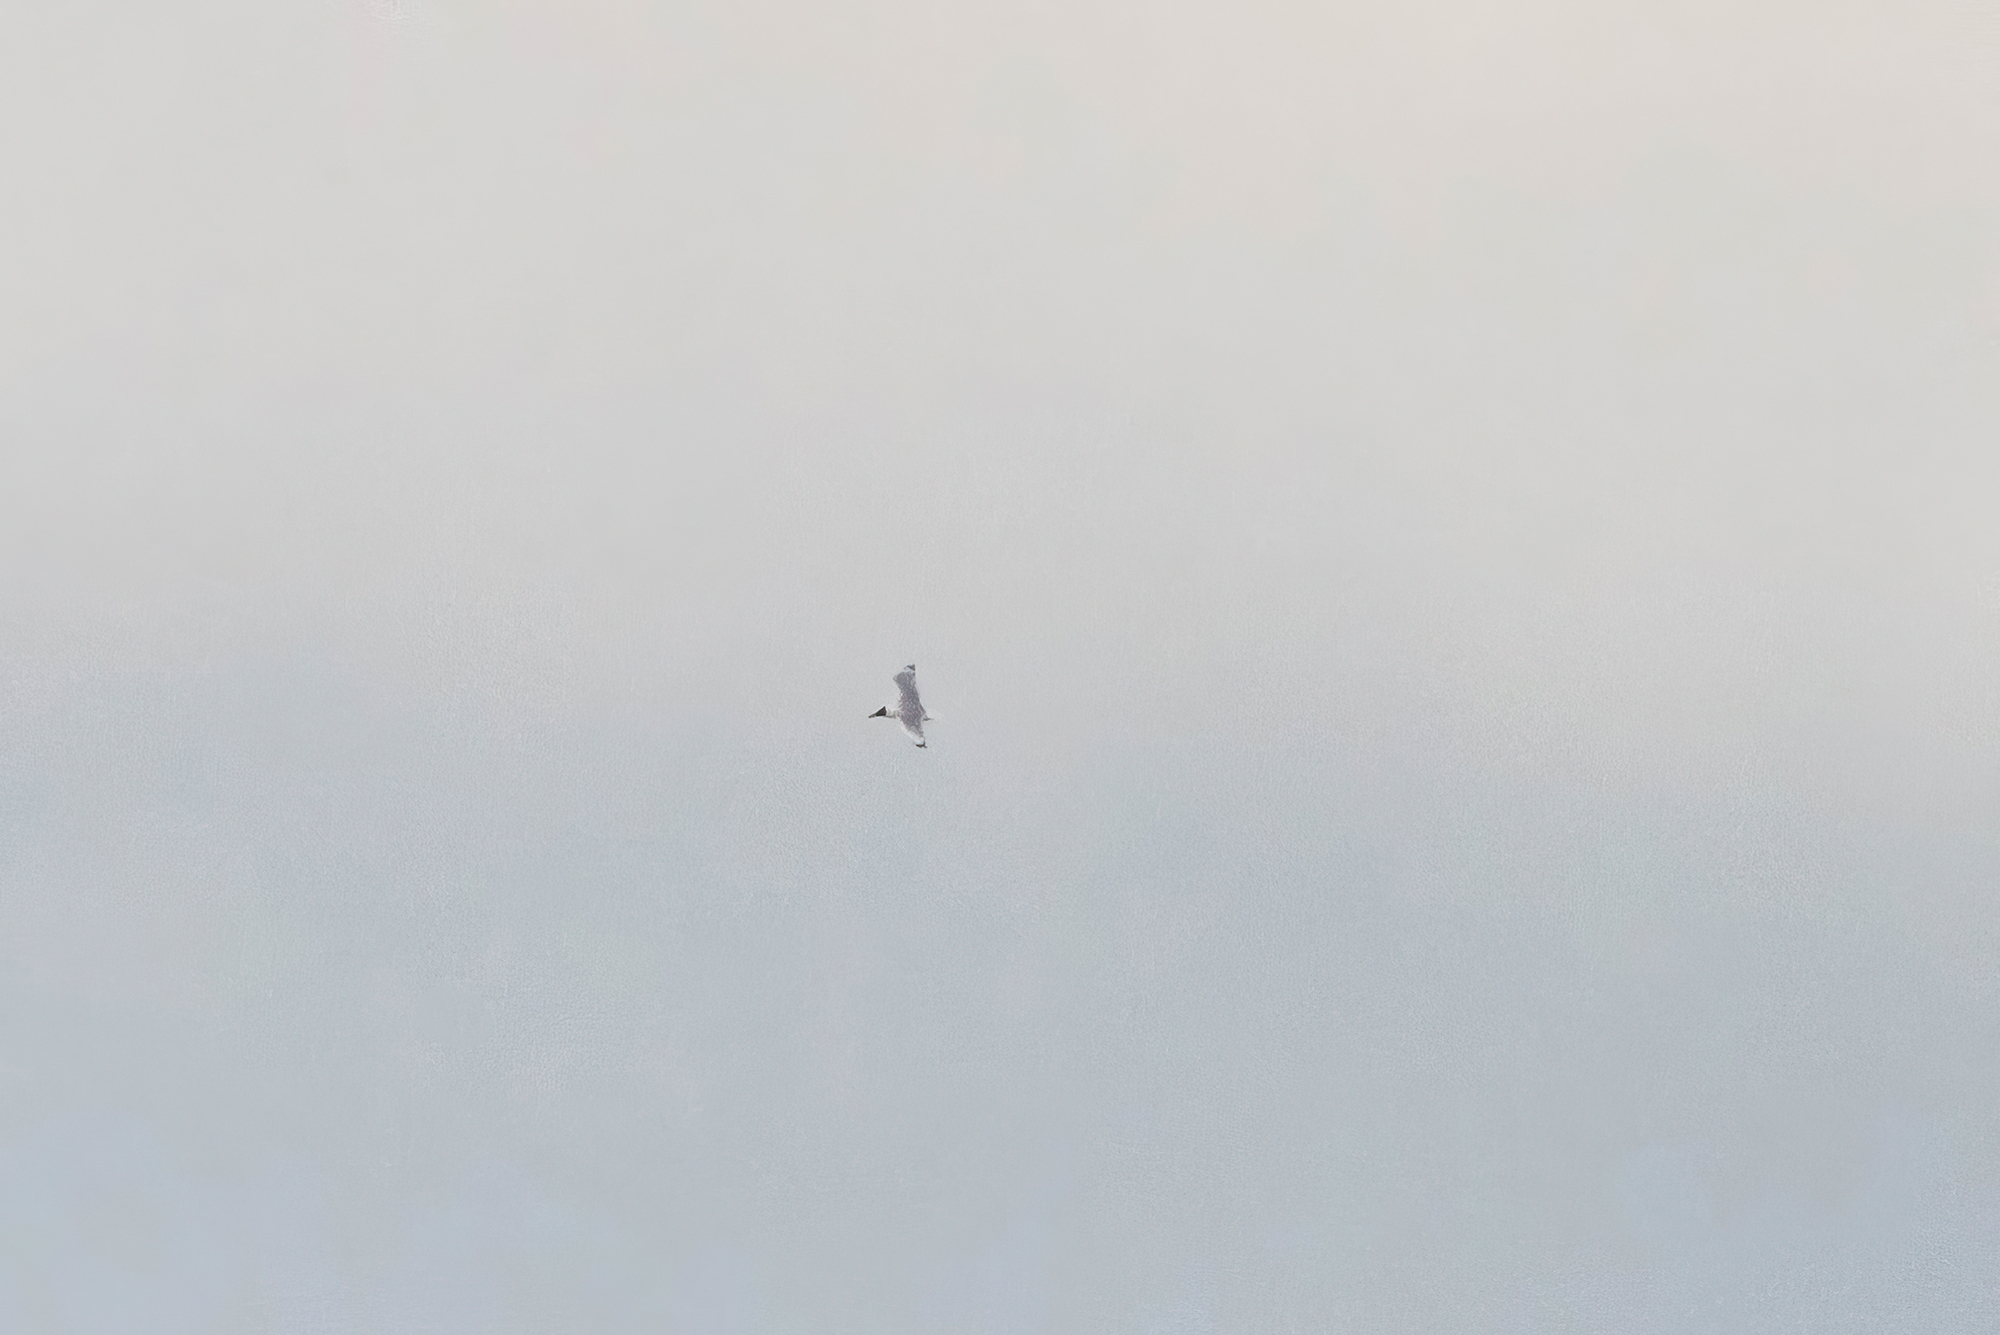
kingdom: Animalia
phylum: Chordata
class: Aves
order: Charadriiformes
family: Laridae
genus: Ichthyaetus
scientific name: Ichthyaetus ichthyaetus
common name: Pallas's gull
